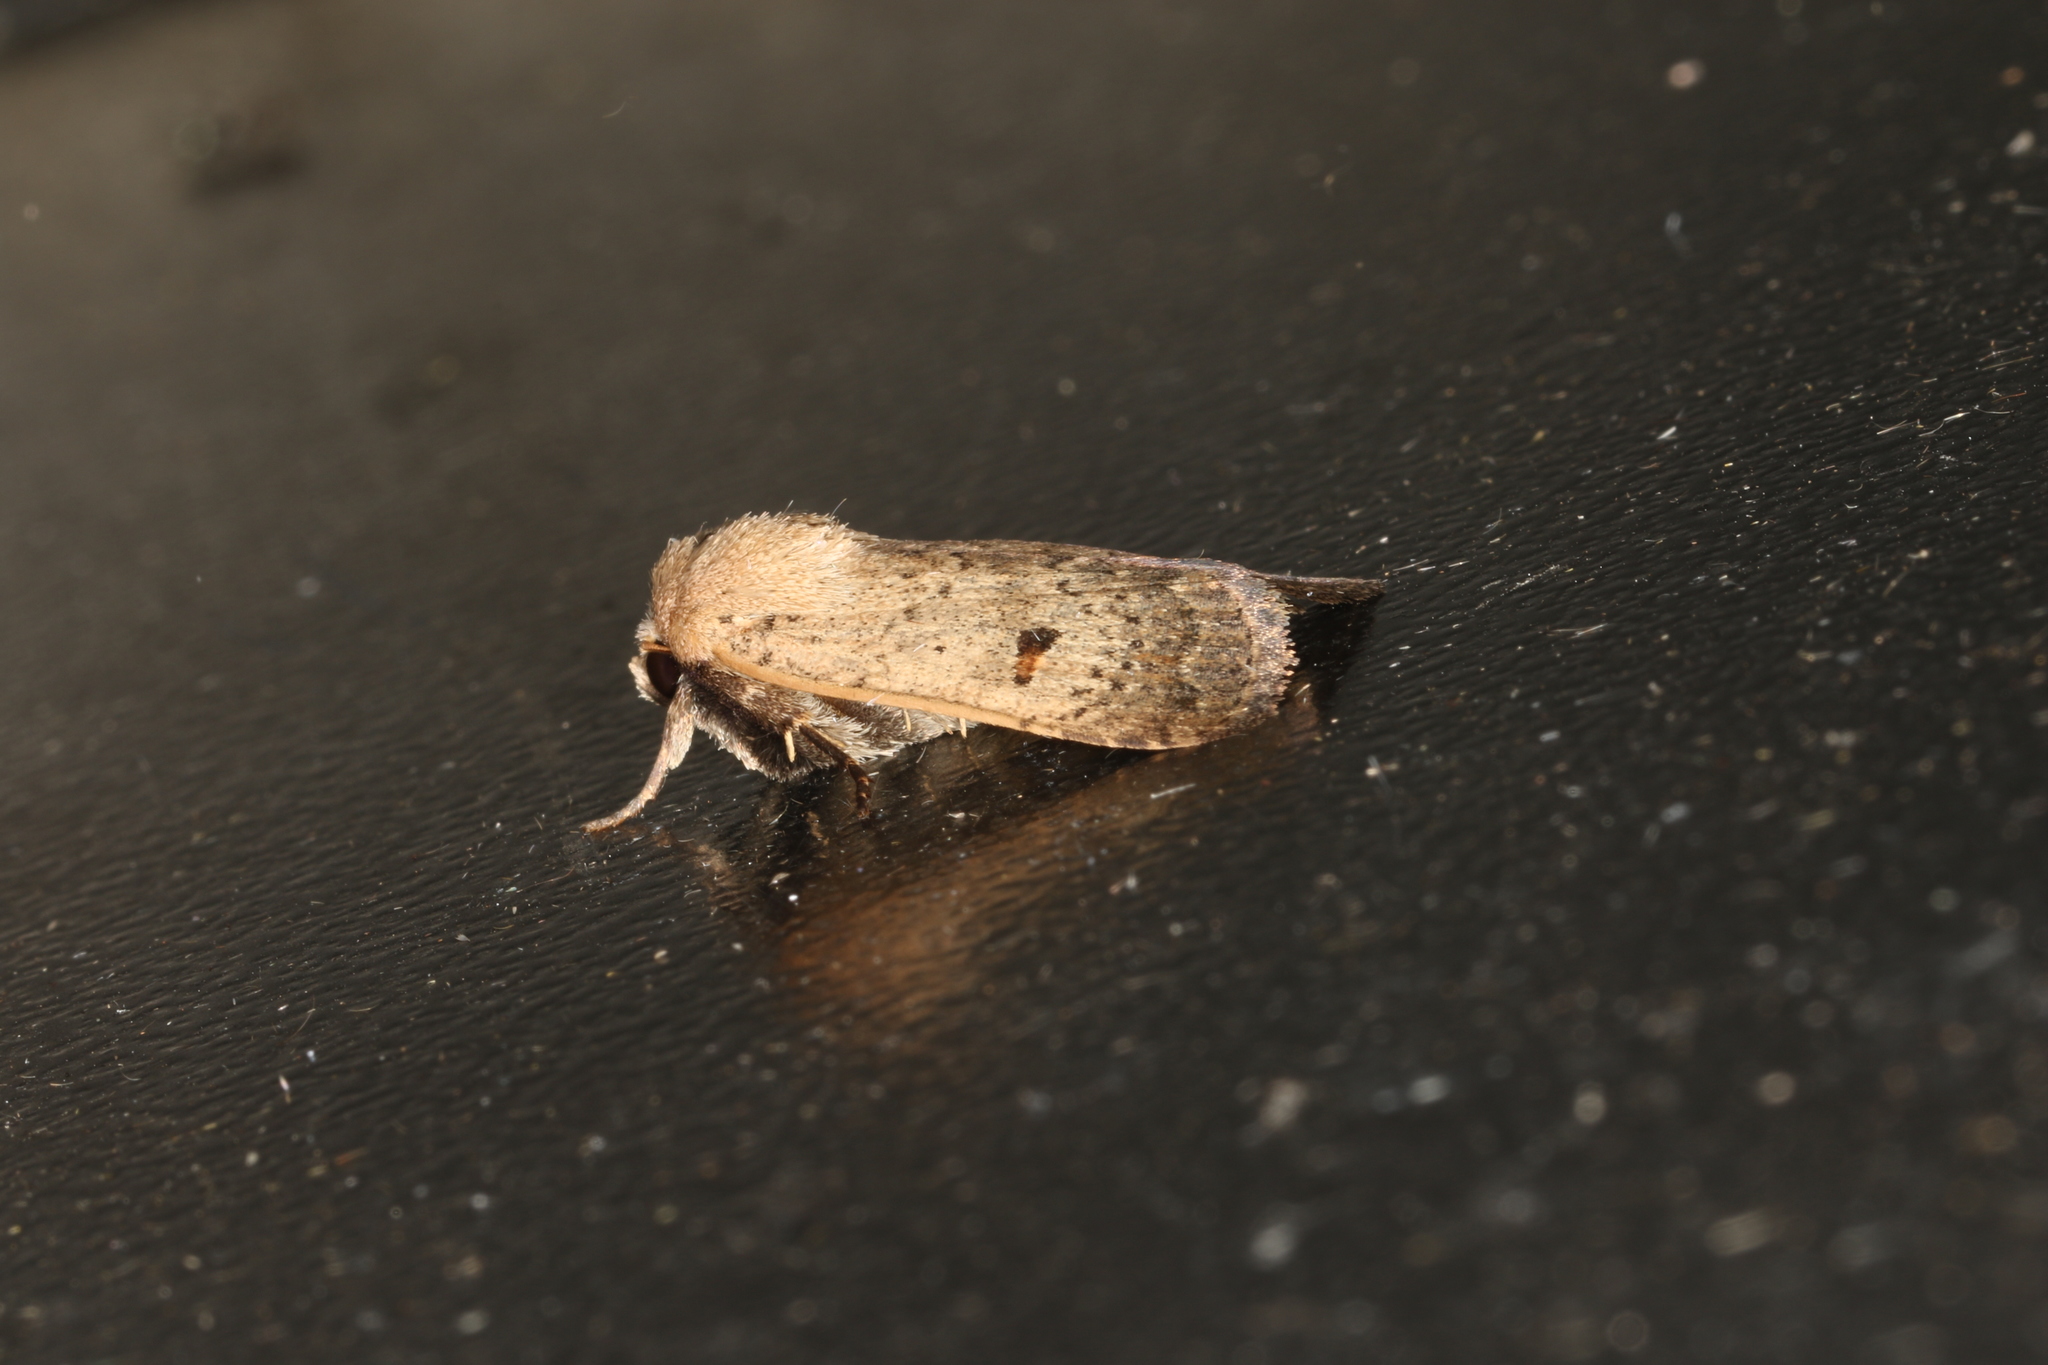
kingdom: Animalia
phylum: Arthropoda
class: Insecta
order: Lepidoptera
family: Noctuidae
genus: Proteuxoa
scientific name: Proteuxoa hypochalchis
